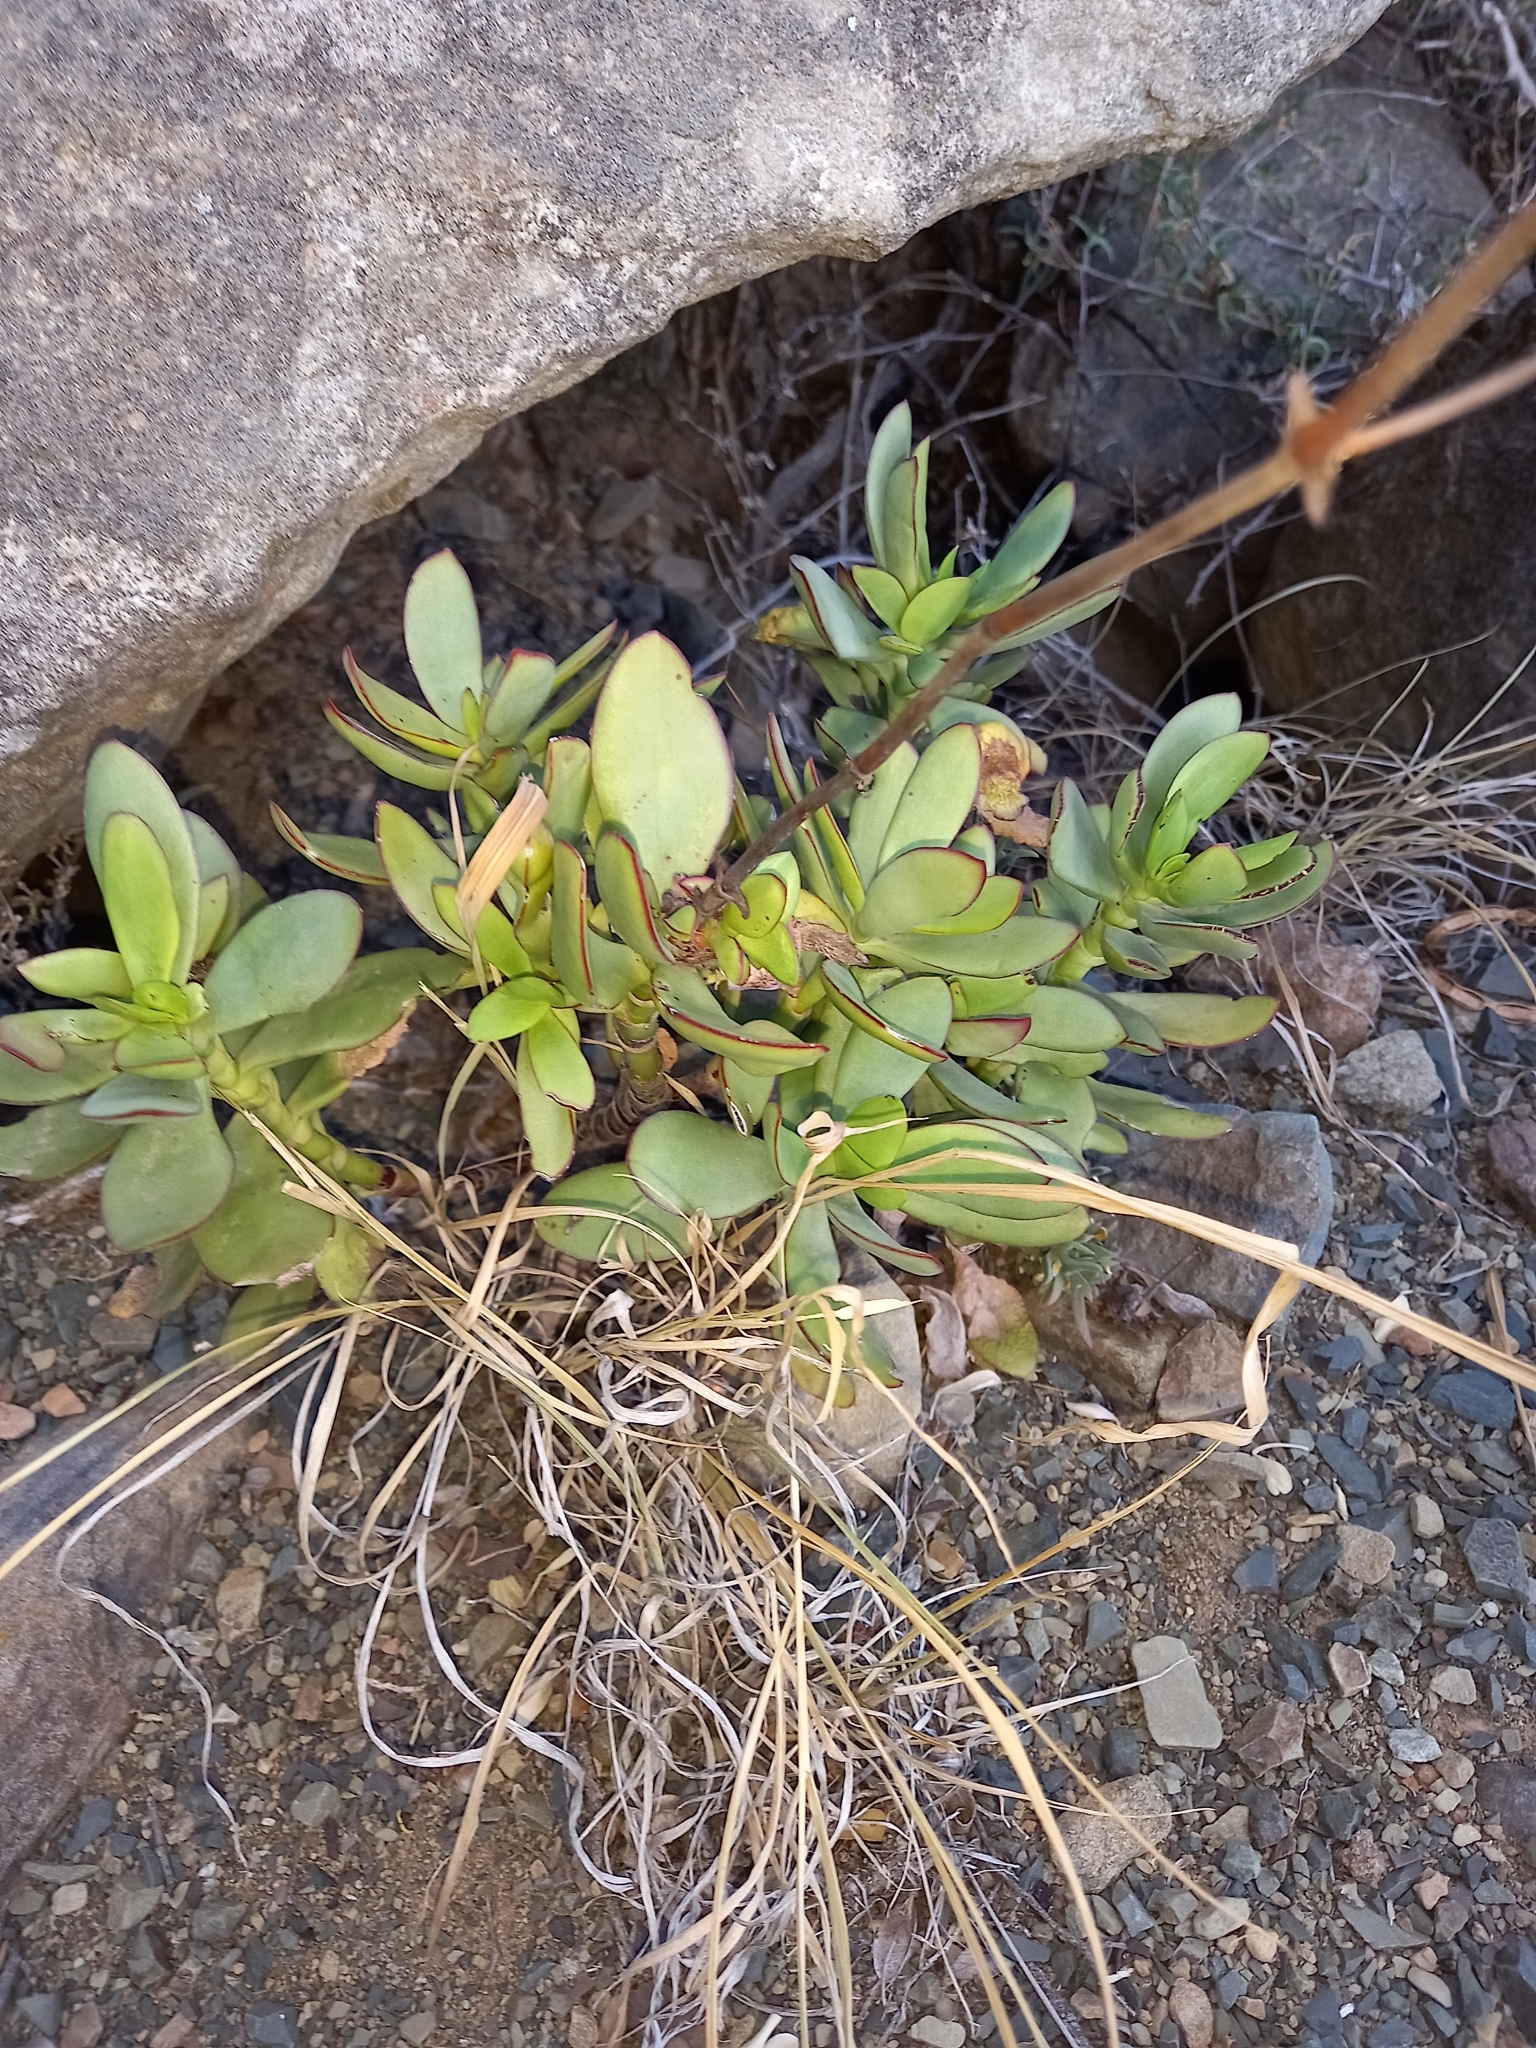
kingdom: Plantae
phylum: Tracheophyta
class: Magnoliopsida
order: Saxifragales
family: Crassulaceae
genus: Crassula
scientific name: Crassula cultrata
